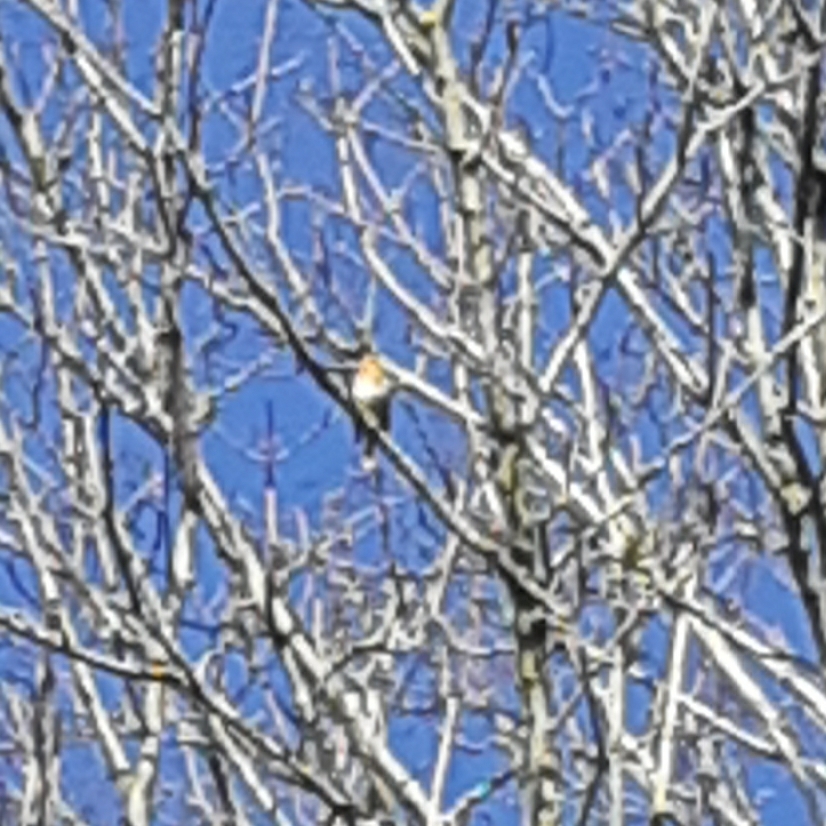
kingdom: Animalia
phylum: Chordata
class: Aves
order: Passeriformes
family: Muscicapidae
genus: Erithacus
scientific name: Erithacus rubecula
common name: European robin
